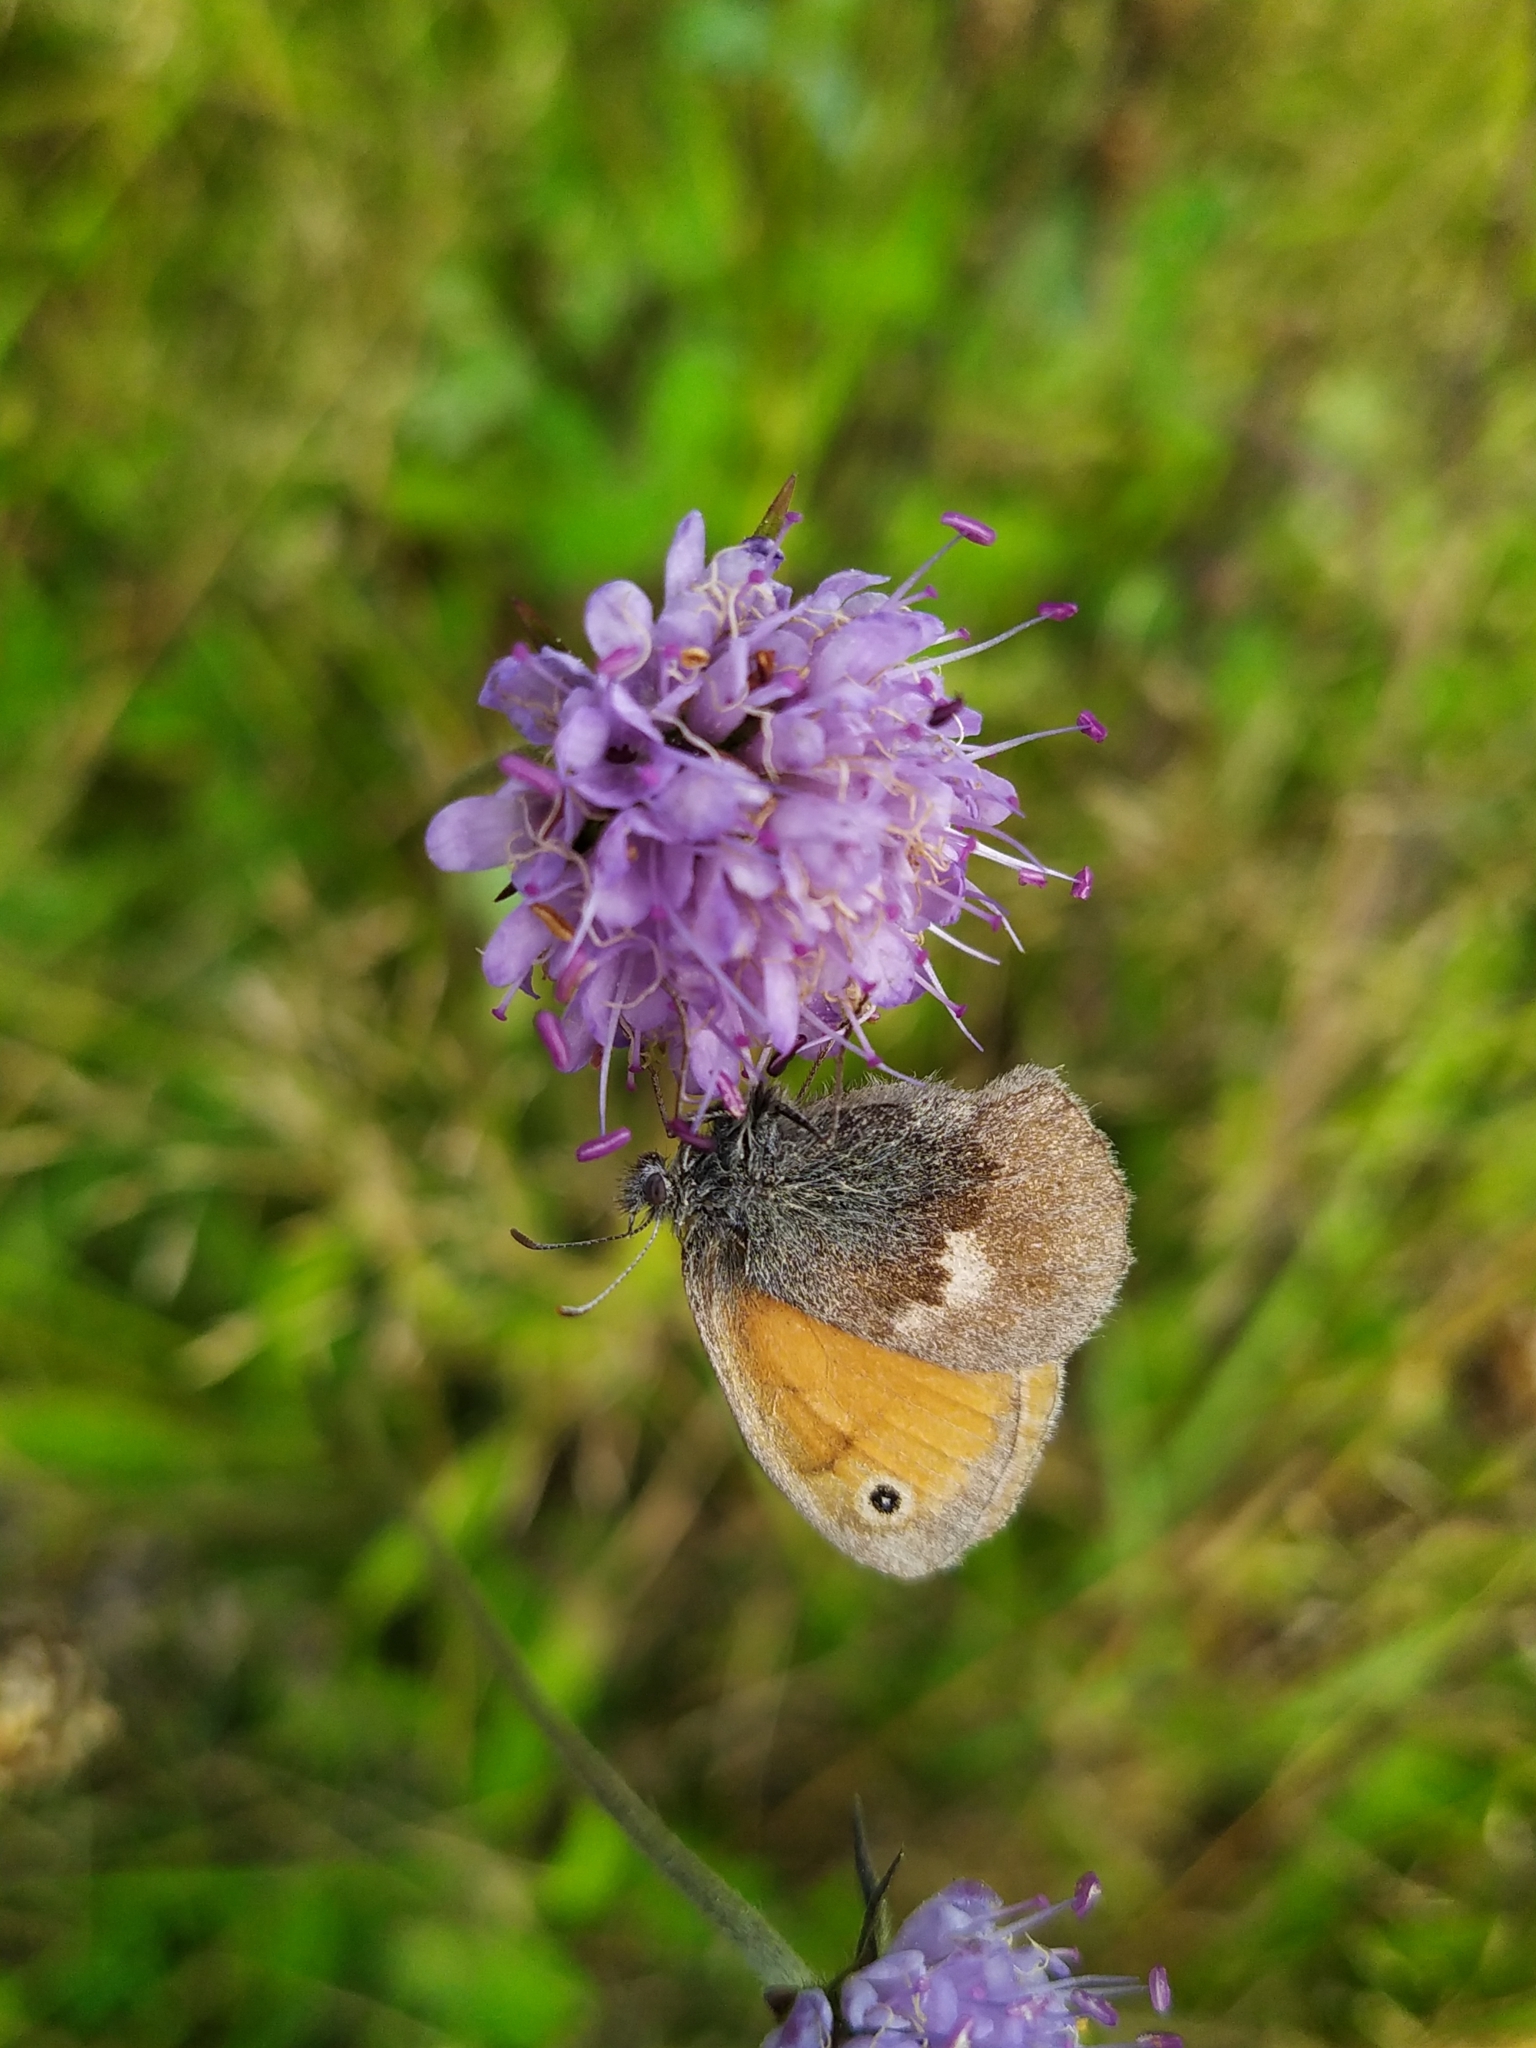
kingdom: Animalia
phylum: Arthropoda
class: Insecta
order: Lepidoptera
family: Nymphalidae
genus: Coenonympha
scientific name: Coenonympha pamphilus
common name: Small heath
